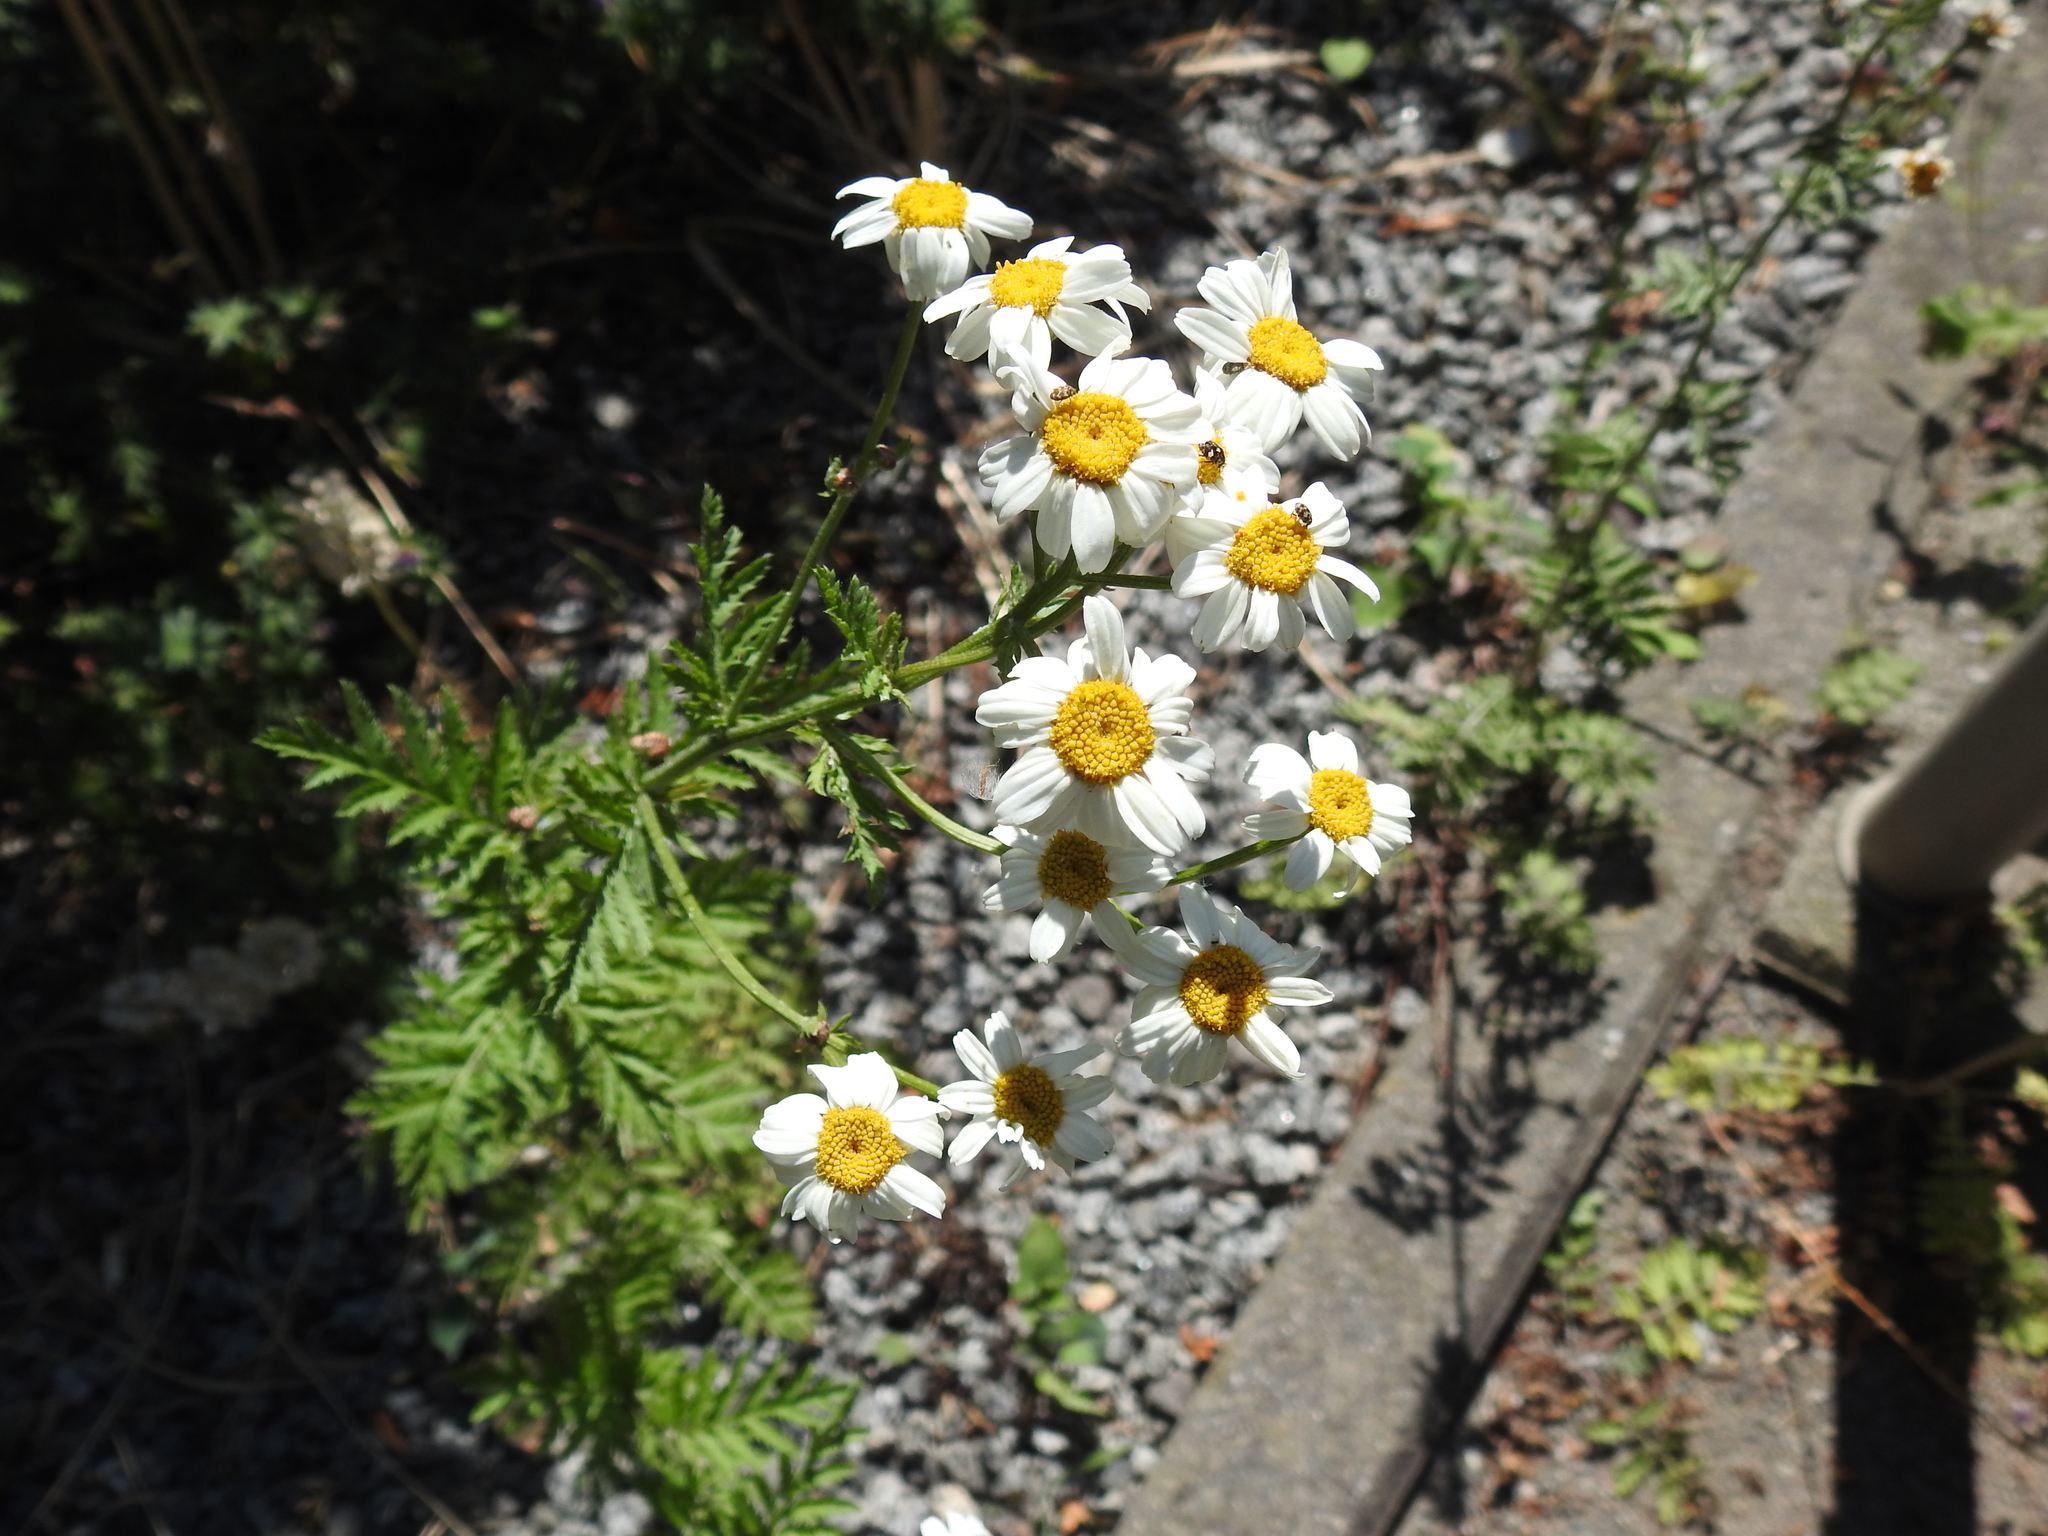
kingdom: Plantae
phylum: Tracheophyta
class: Magnoliopsida
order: Asterales
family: Asteraceae
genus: Tanacetum
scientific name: Tanacetum corymbosum
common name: Scentless feverfew
